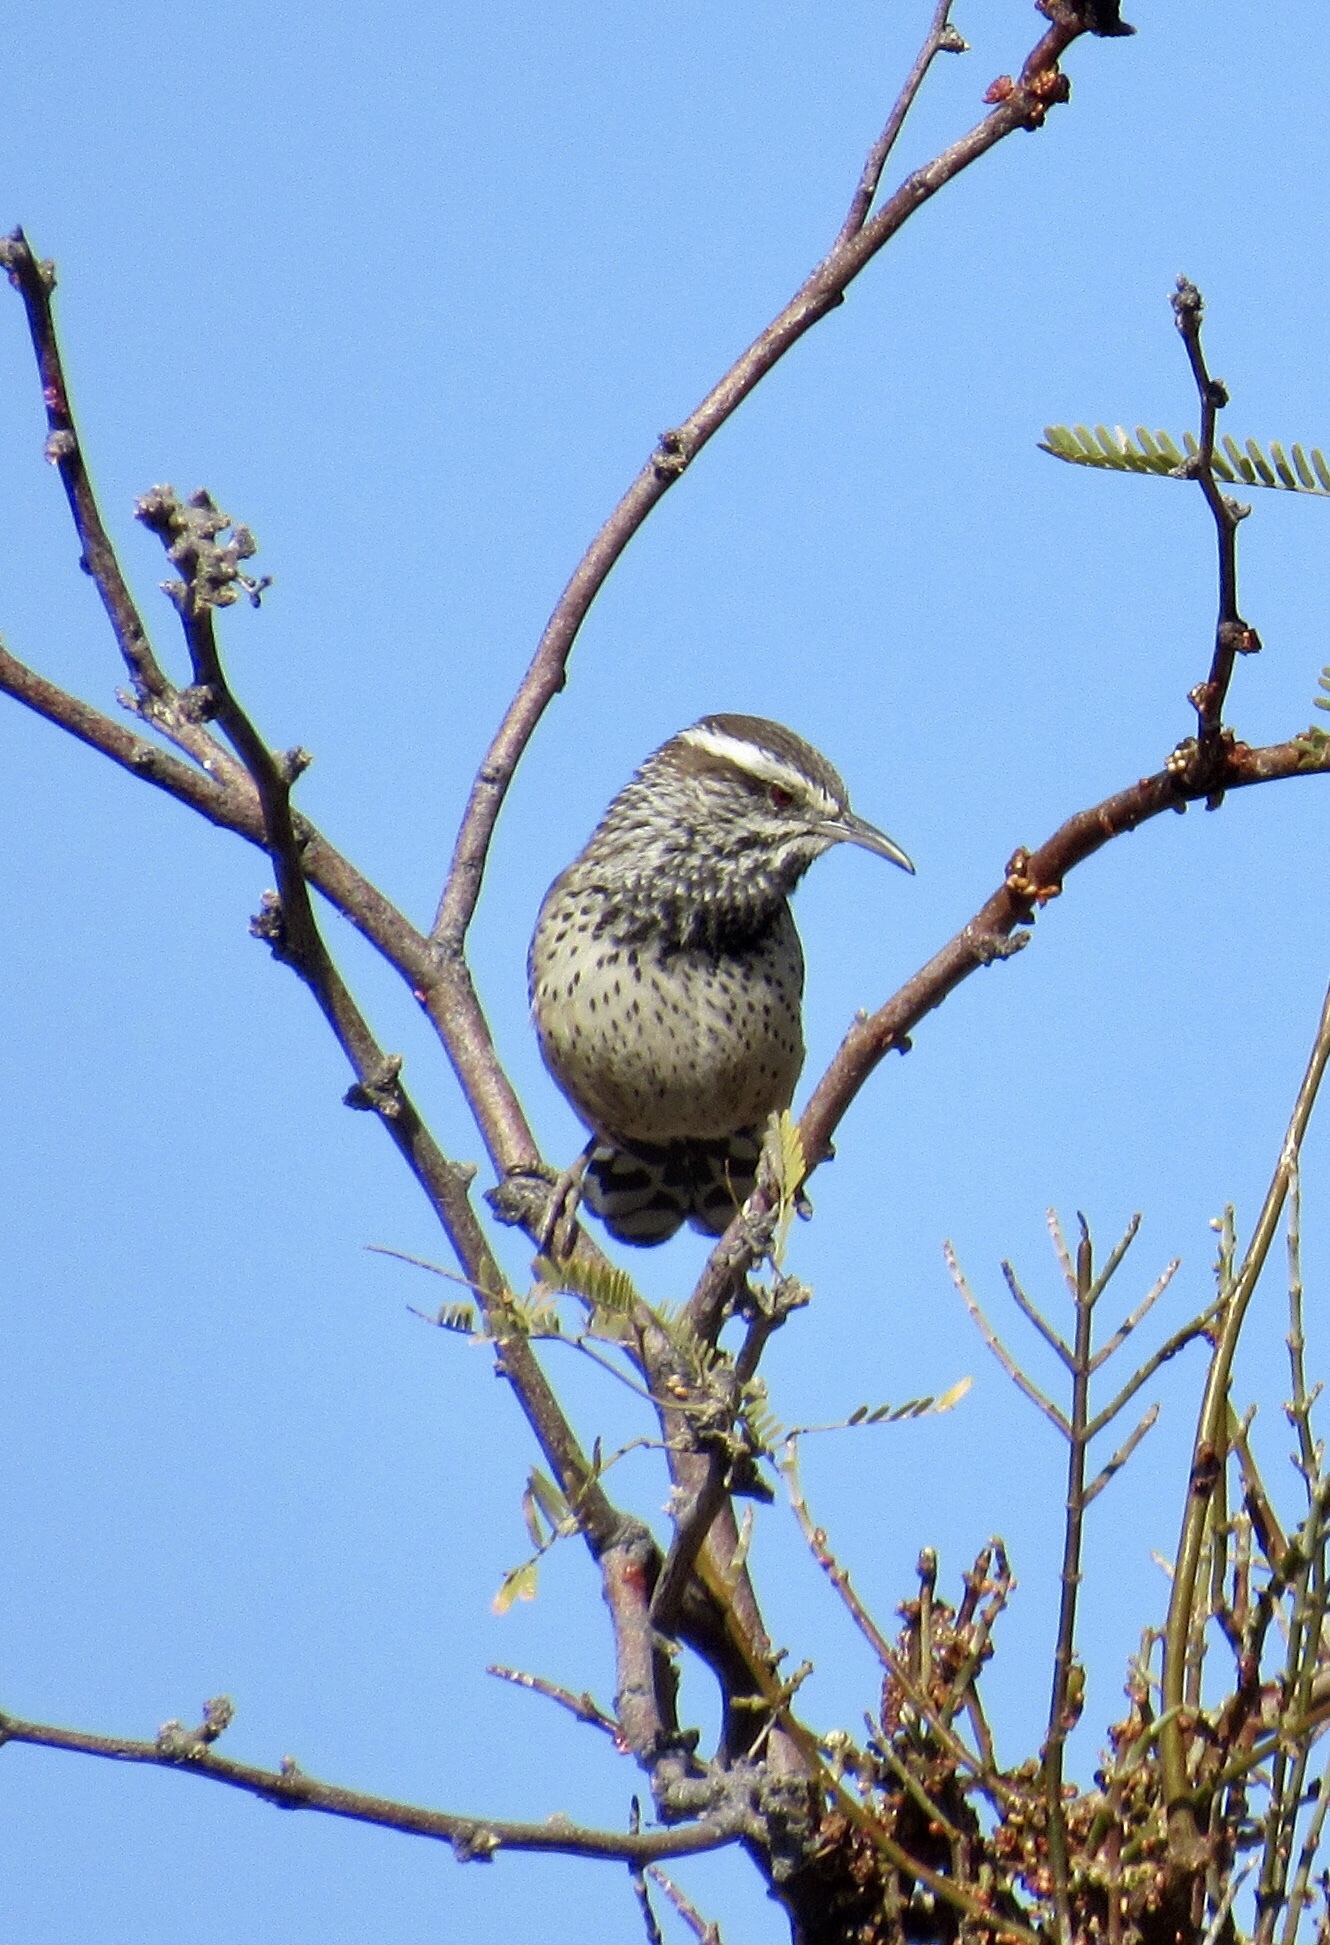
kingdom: Animalia
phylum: Chordata
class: Aves
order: Passeriformes
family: Troglodytidae
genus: Campylorhynchus
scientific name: Campylorhynchus brunneicapillus
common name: Cactus wren
